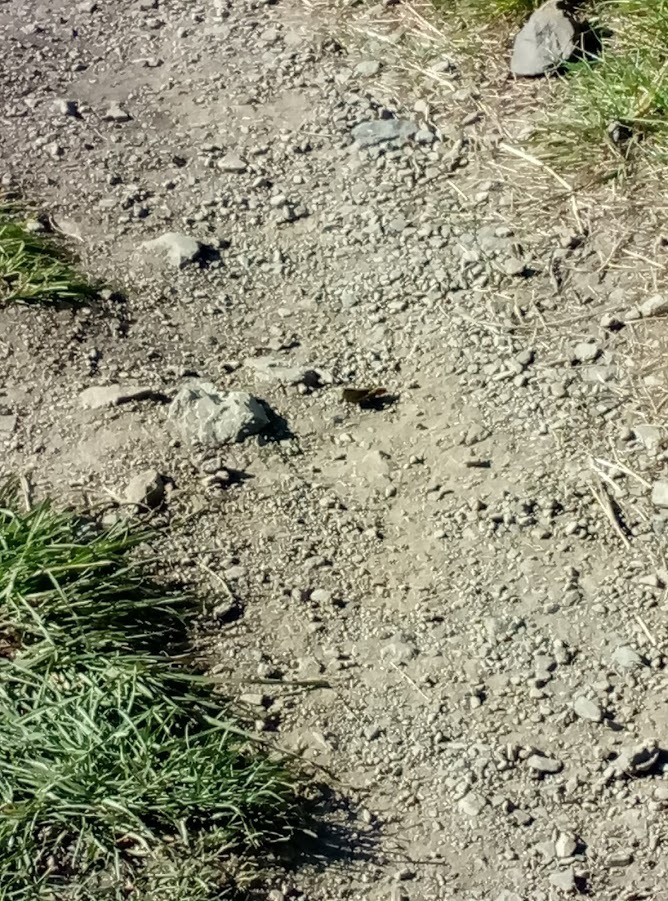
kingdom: Animalia
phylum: Arthropoda
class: Insecta
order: Orthoptera
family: Acrididae
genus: Locusta
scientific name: Locusta migratoria
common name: Migratory locust
